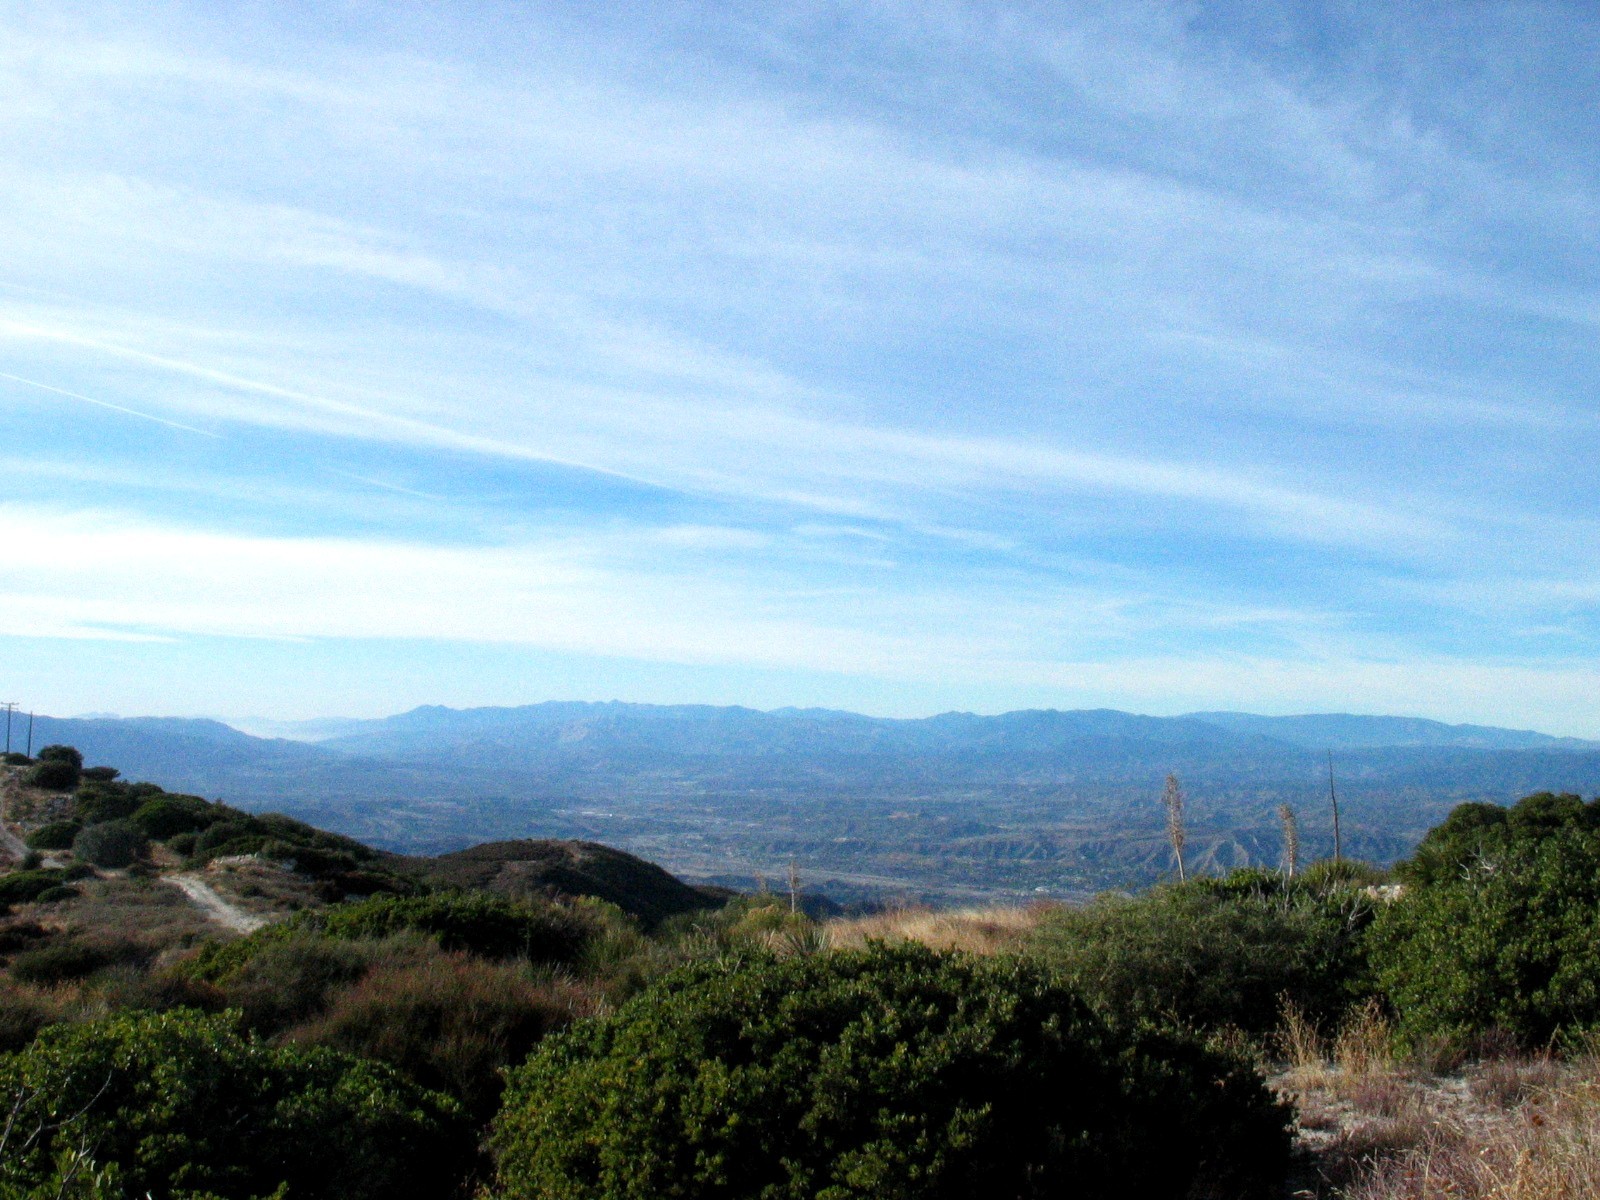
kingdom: Plantae
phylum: Tracheophyta
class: Liliopsida
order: Asparagales
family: Asparagaceae
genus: Hesperoyucca
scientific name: Hesperoyucca whipplei
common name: Our lord's-candle
